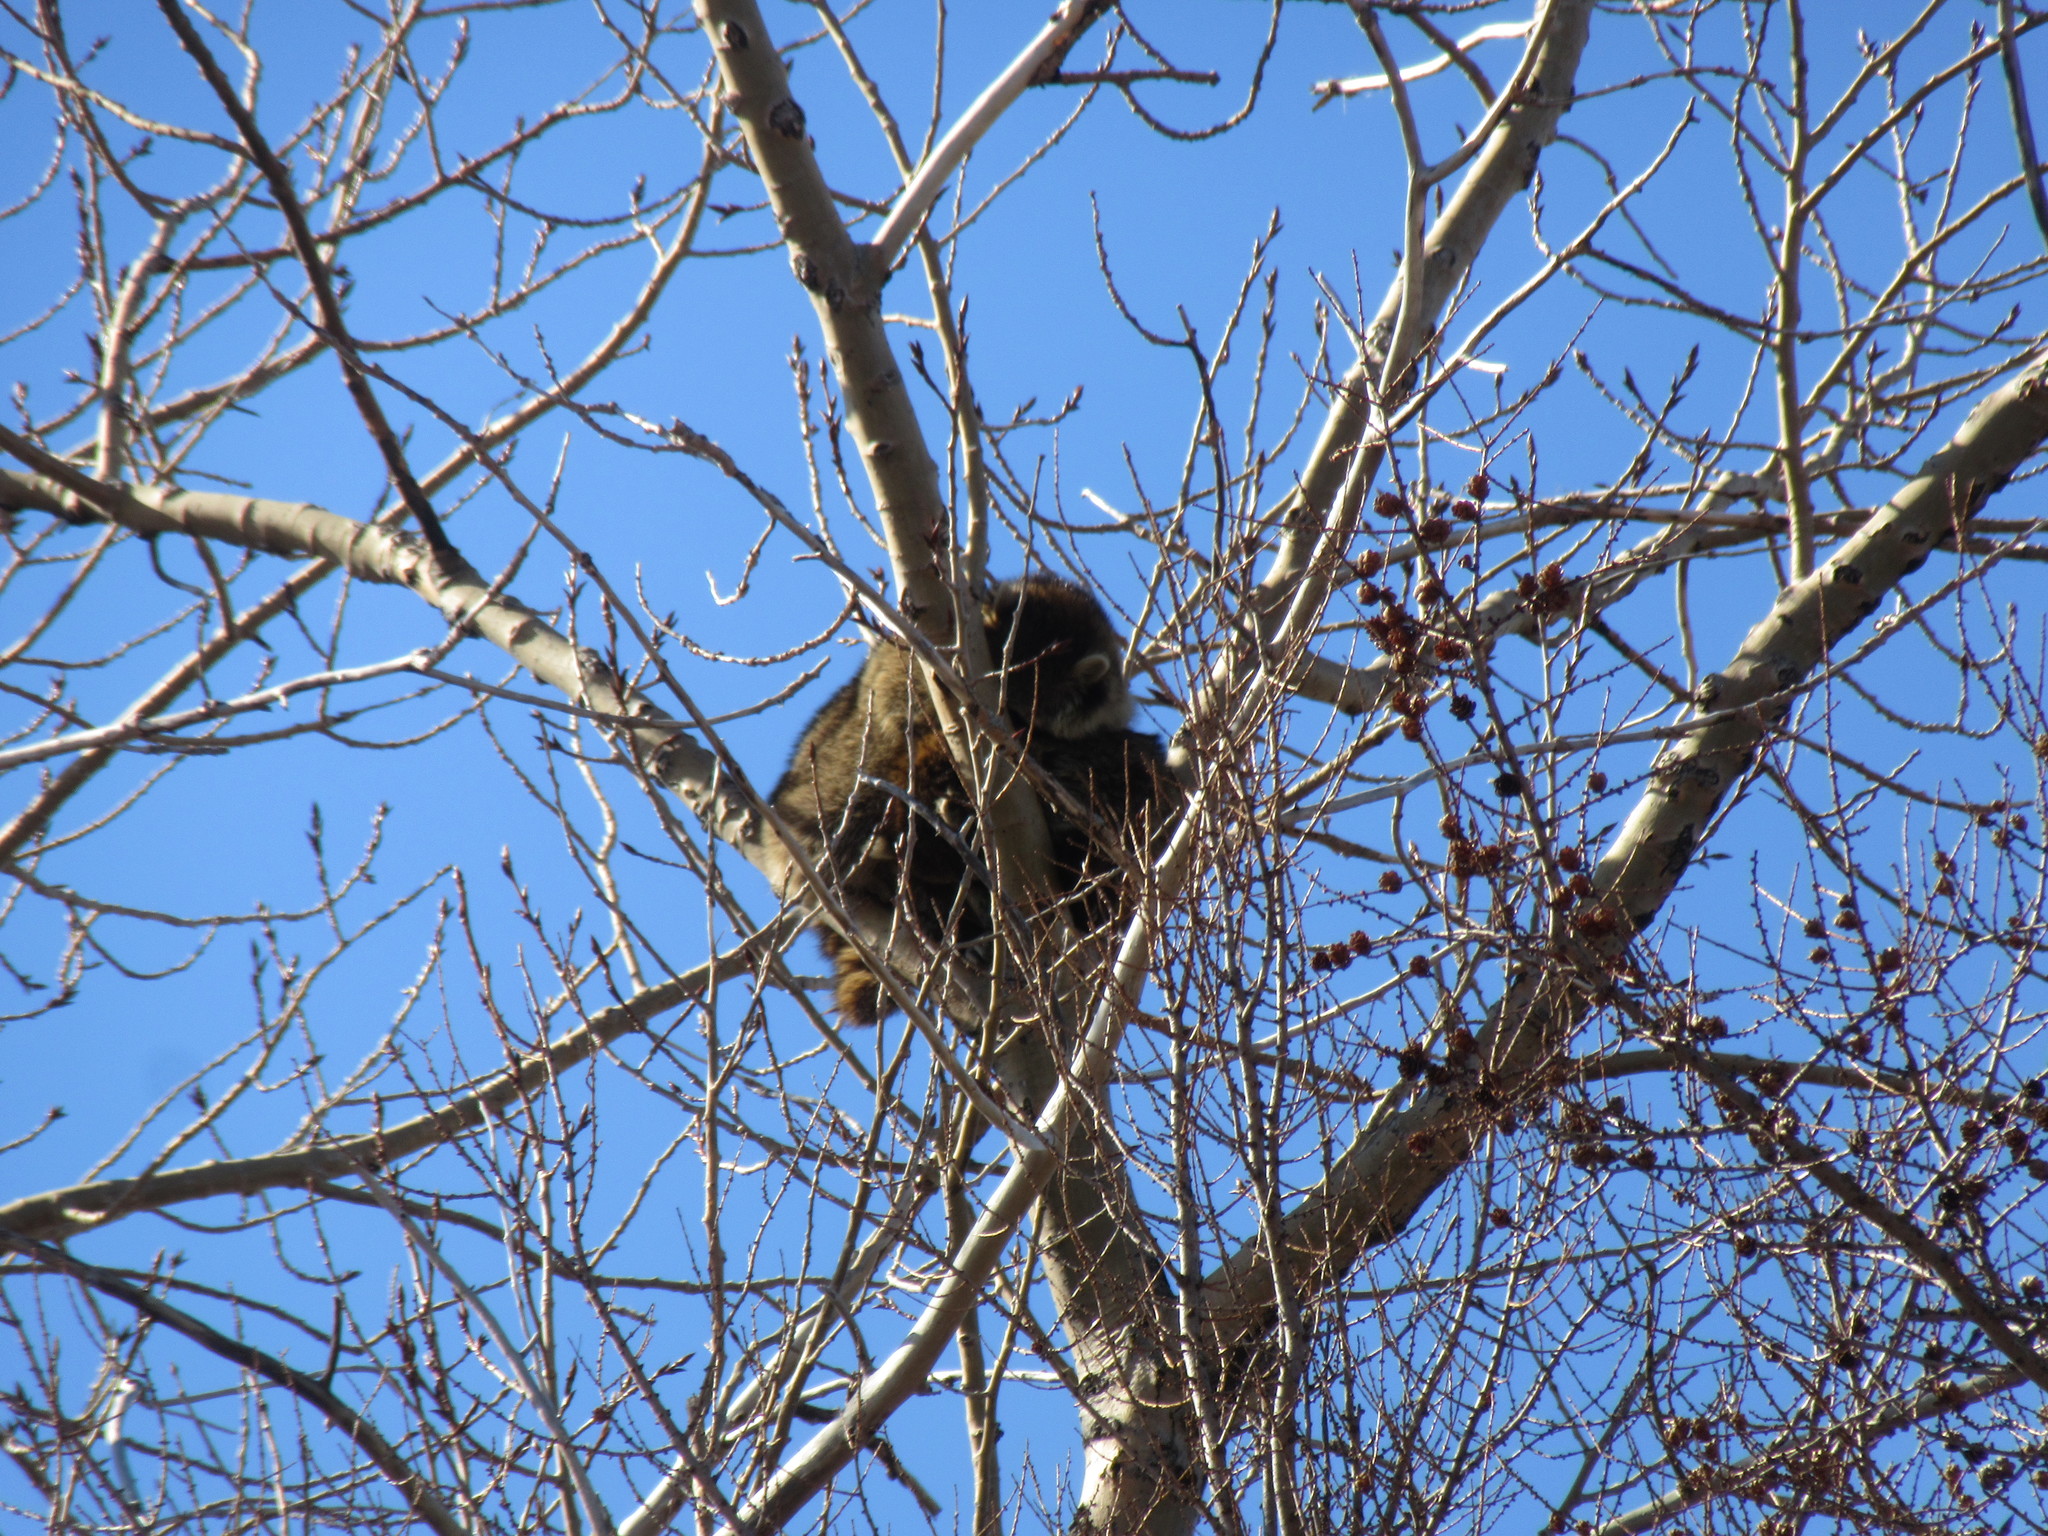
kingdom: Animalia
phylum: Chordata
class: Mammalia
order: Carnivora
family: Procyonidae
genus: Procyon
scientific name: Procyon lotor
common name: Raccoon
